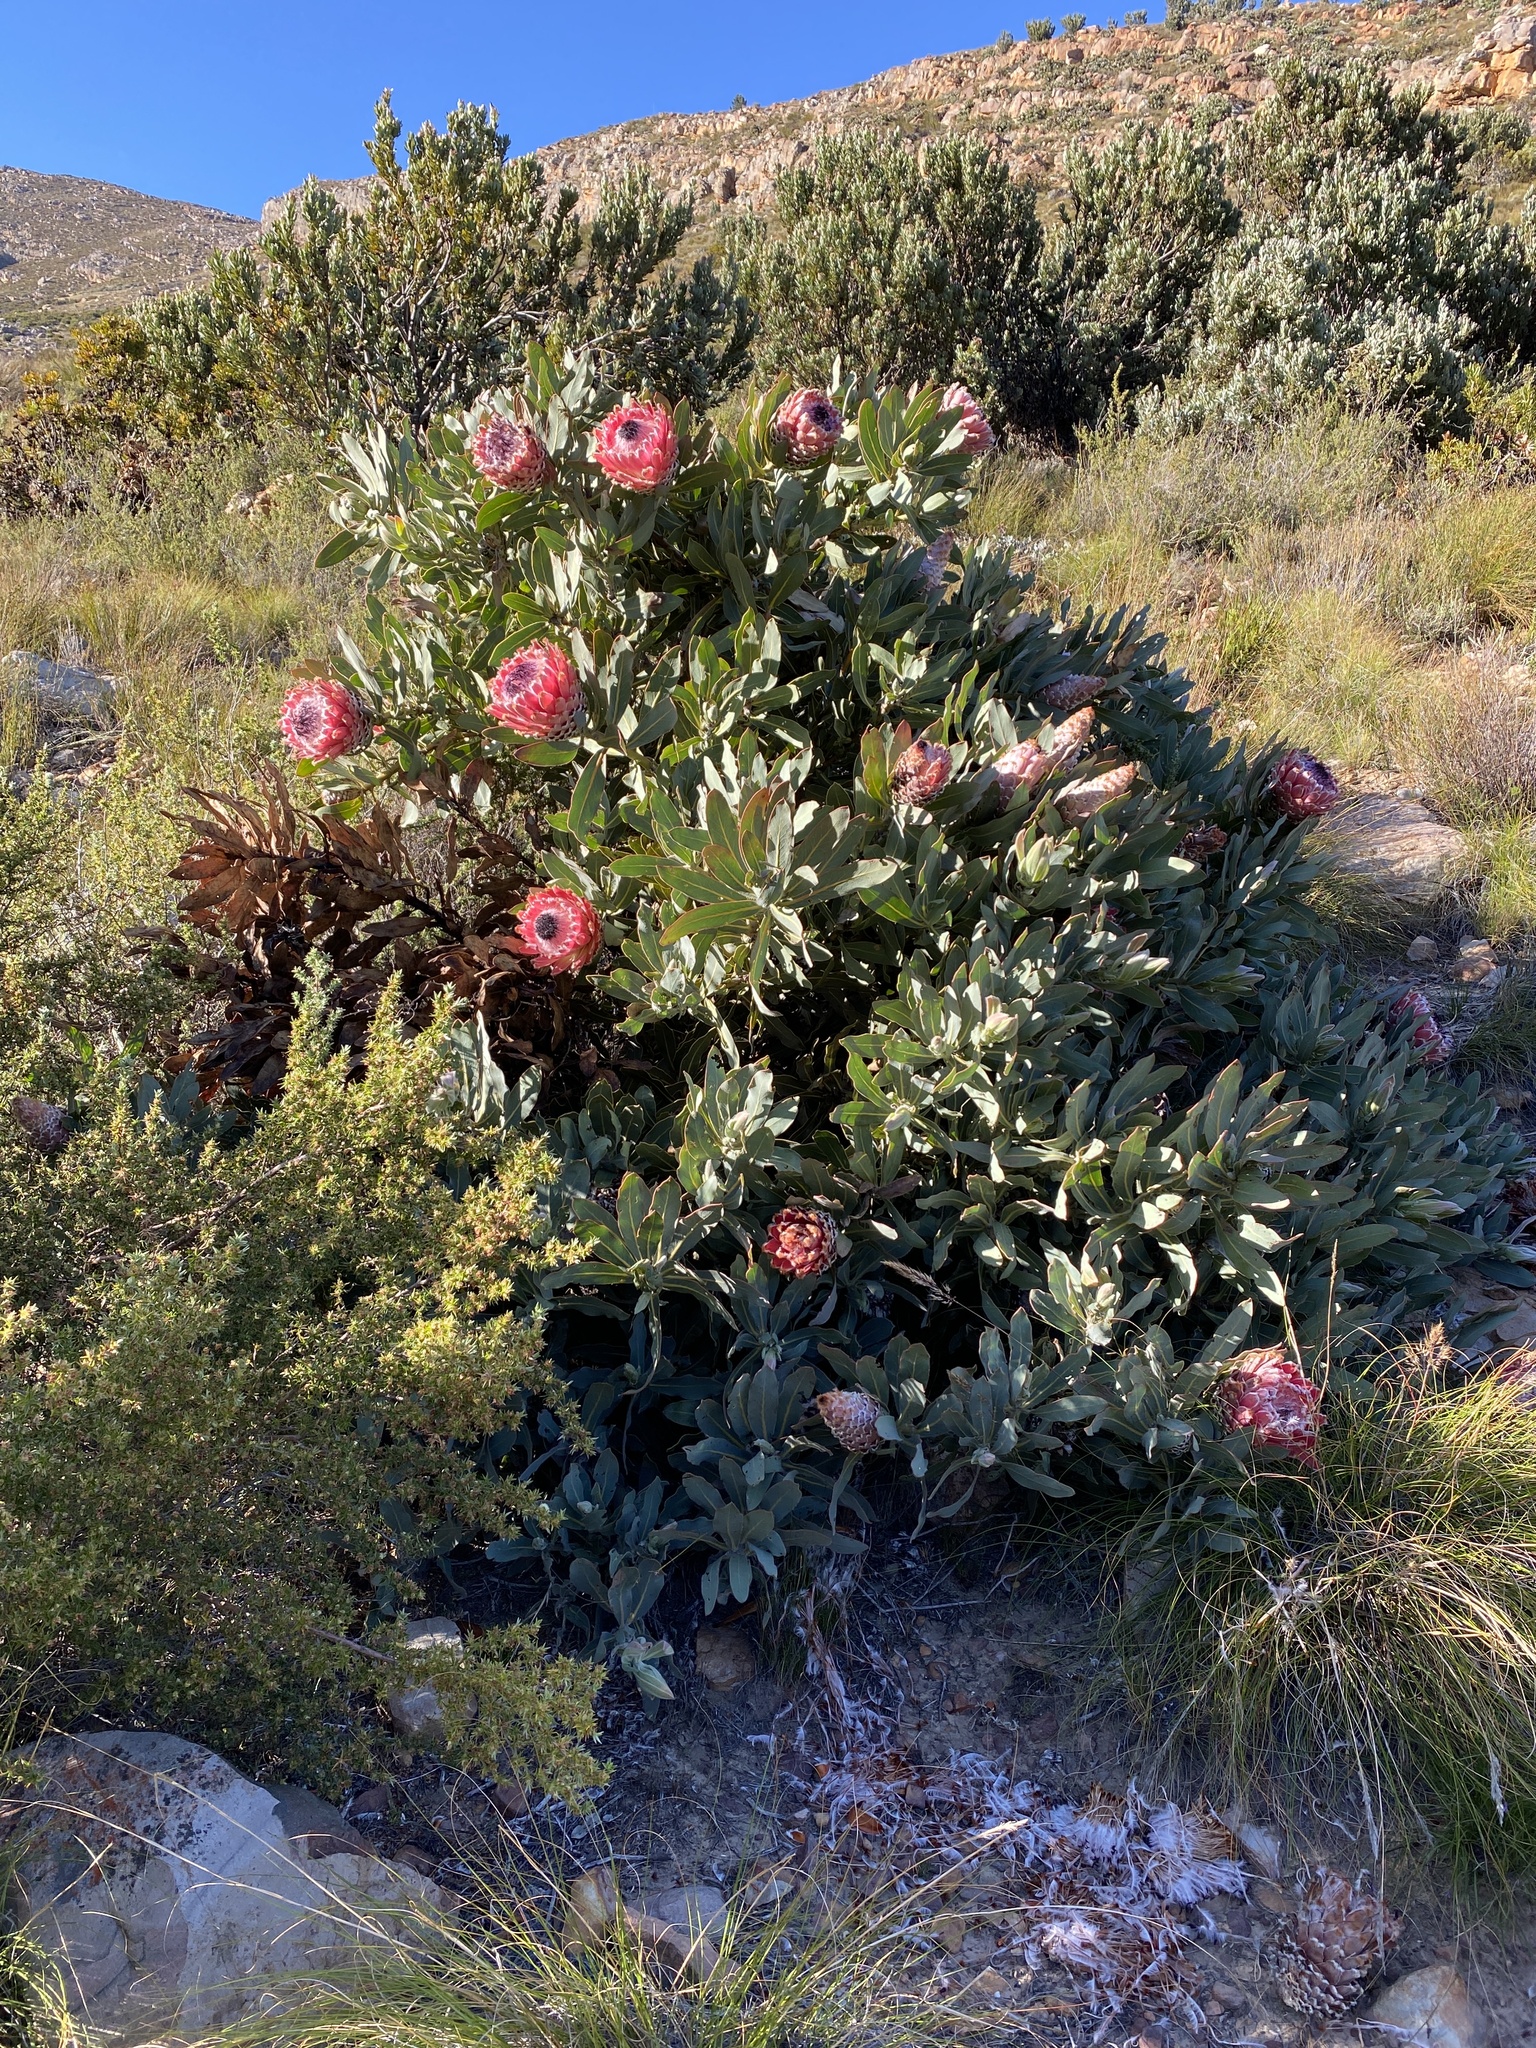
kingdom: Plantae
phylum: Tracheophyta
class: Magnoliopsida
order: Proteales
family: Proteaceae
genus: Protea
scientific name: Protea magnifica
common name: Bearded sugarbush
